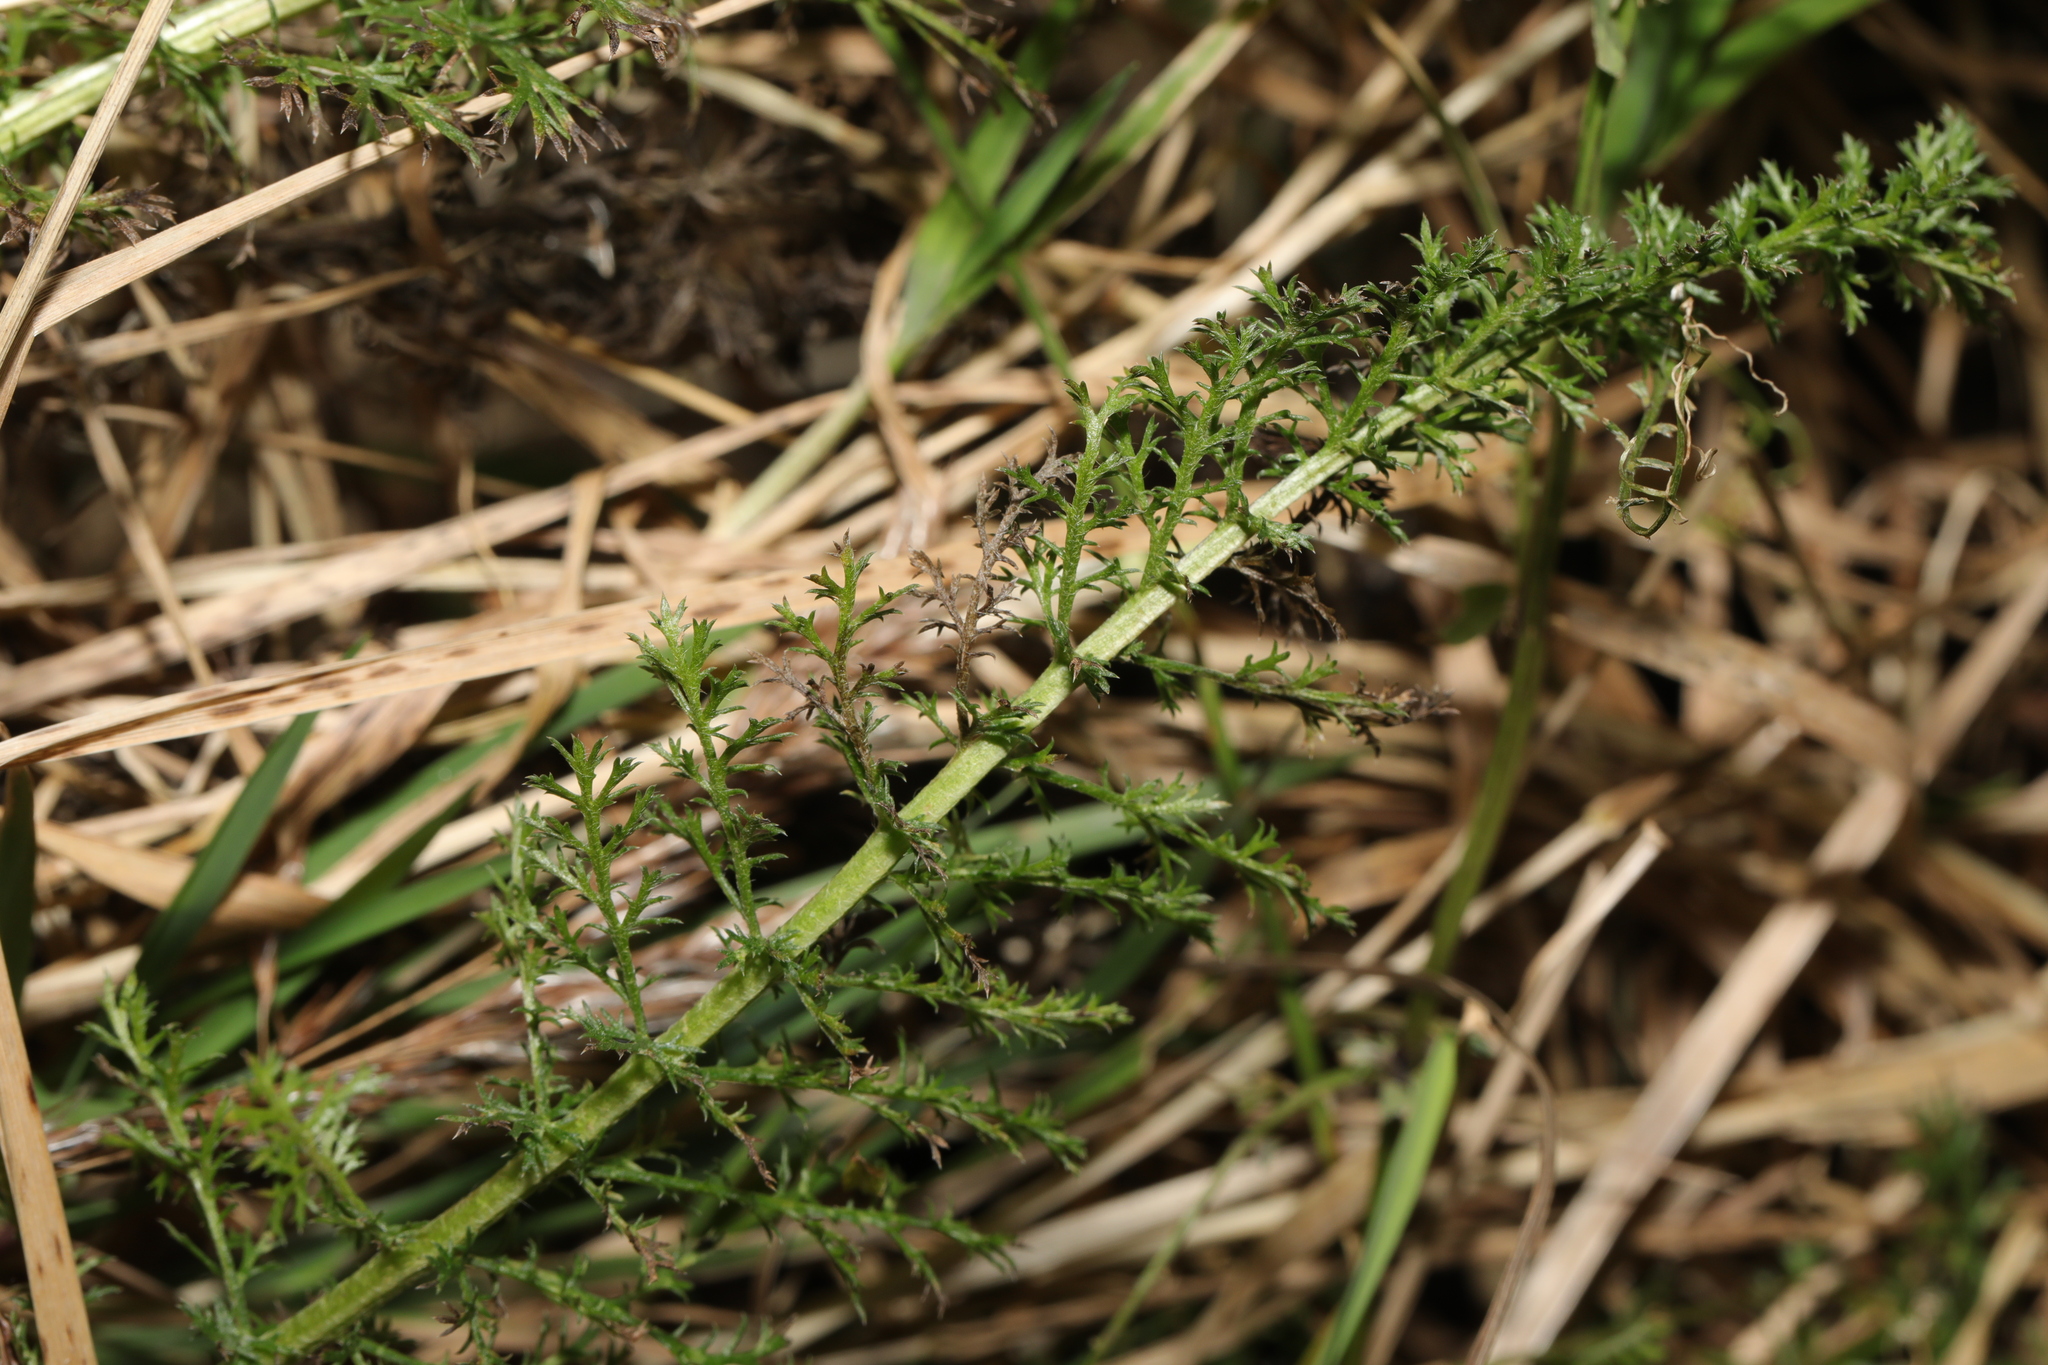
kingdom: Plantae
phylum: Tracheophyta
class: Magnoliopsida
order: Asterales
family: Asteraceae
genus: Achillea
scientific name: Achillea millefolium
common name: Yarrow
